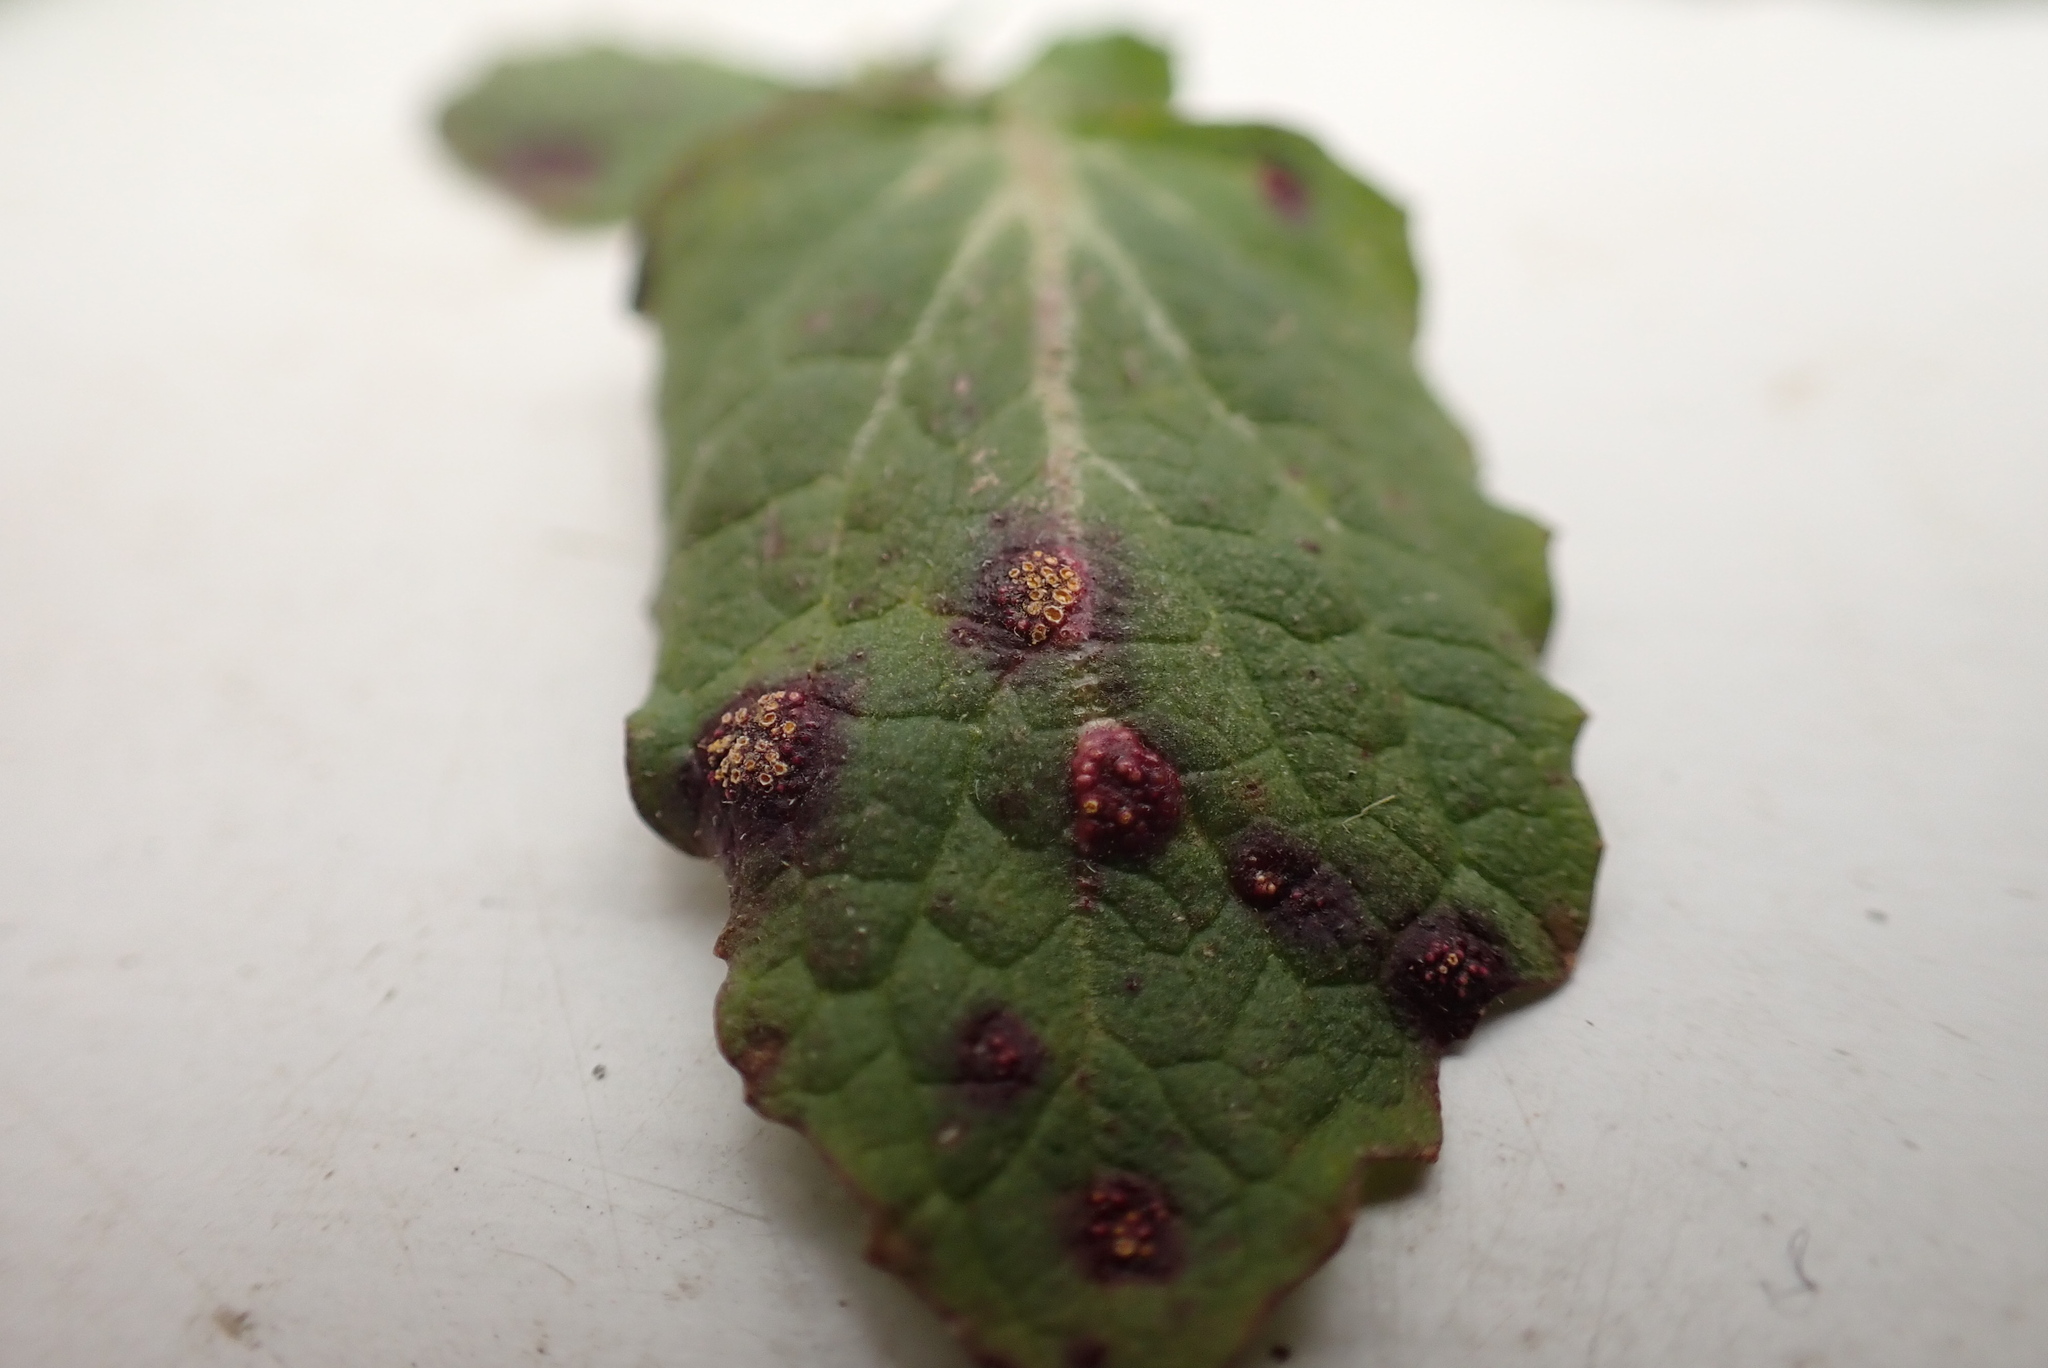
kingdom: Fungi
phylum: Basidiomycota
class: Pucciniomycetes
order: Pucciniales
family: Pucciniaceae
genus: Puccinia
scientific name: Puccinia lapsanae
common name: Nipplewort rust
